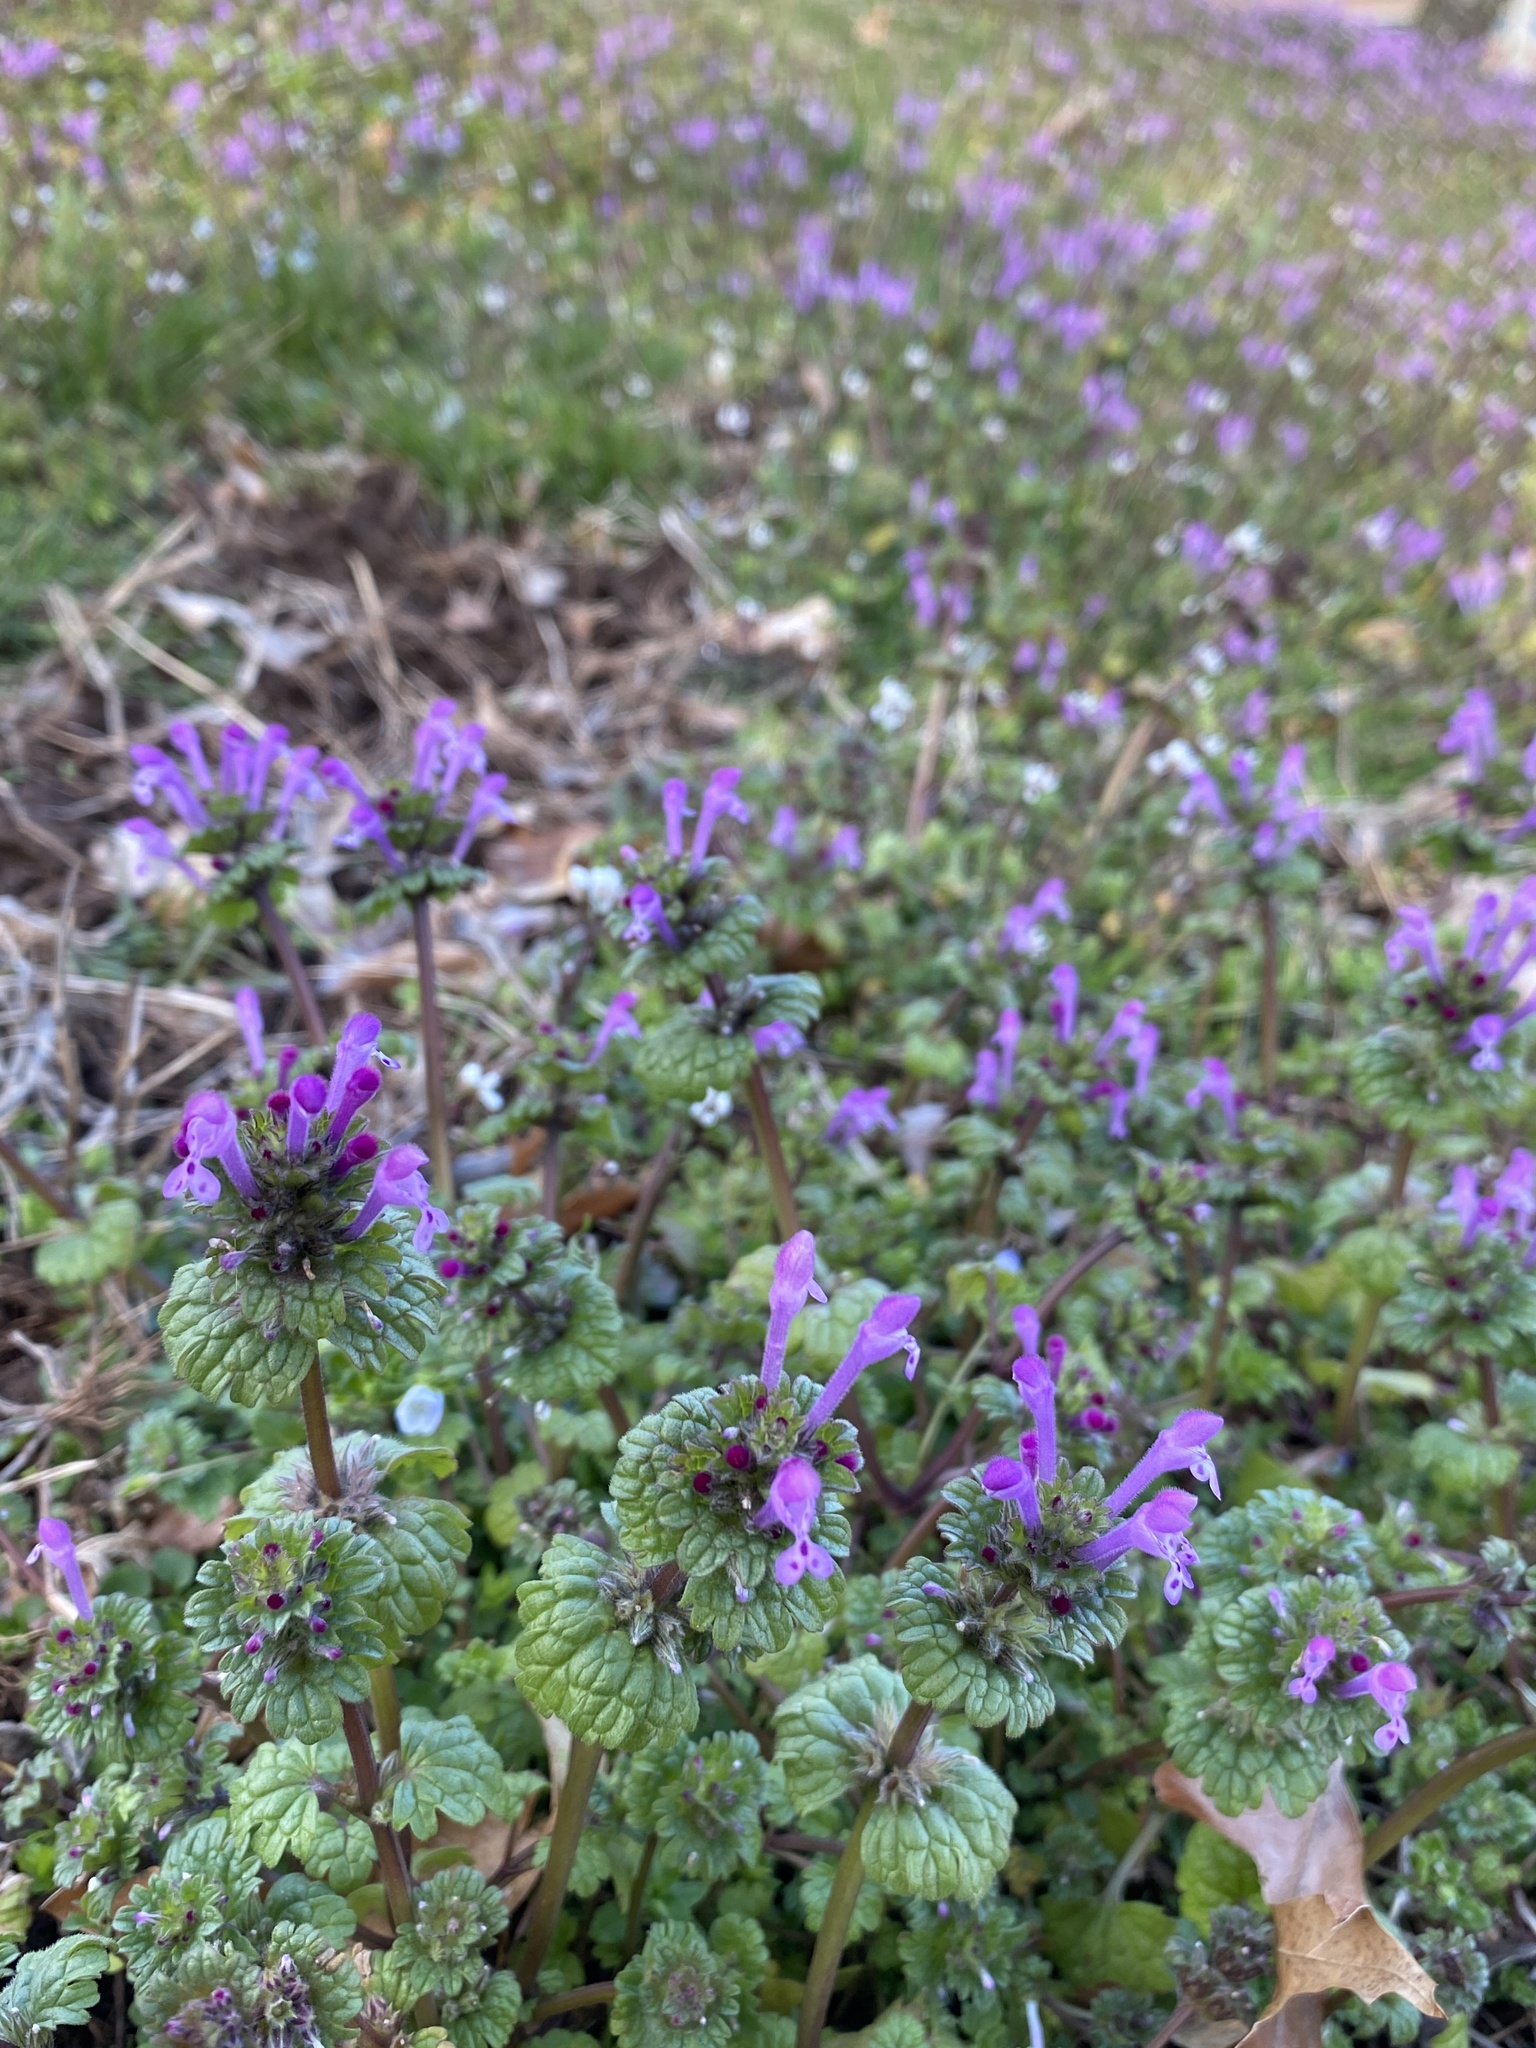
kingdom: Plantae
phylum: Tracheophyta
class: Magnoliopsida
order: Lamiales
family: Lamiaceae
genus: Lamium
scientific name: Lamium amplexicaule
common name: Henbit dead-nettle
